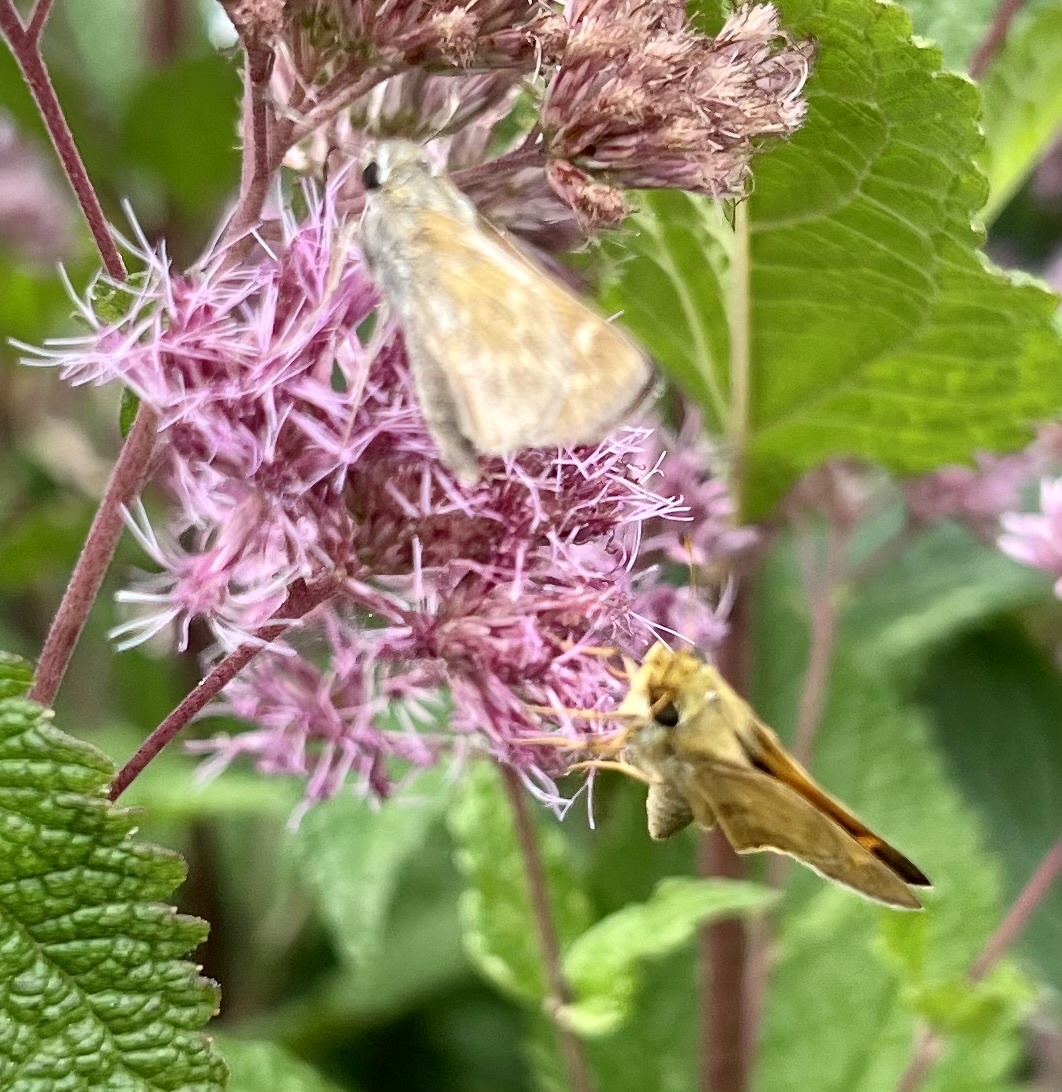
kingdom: Animalia
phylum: Arthropoda
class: Insecta
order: Lepidoptera
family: Hesperiidae
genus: Atalopedes
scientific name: Atalopedes
